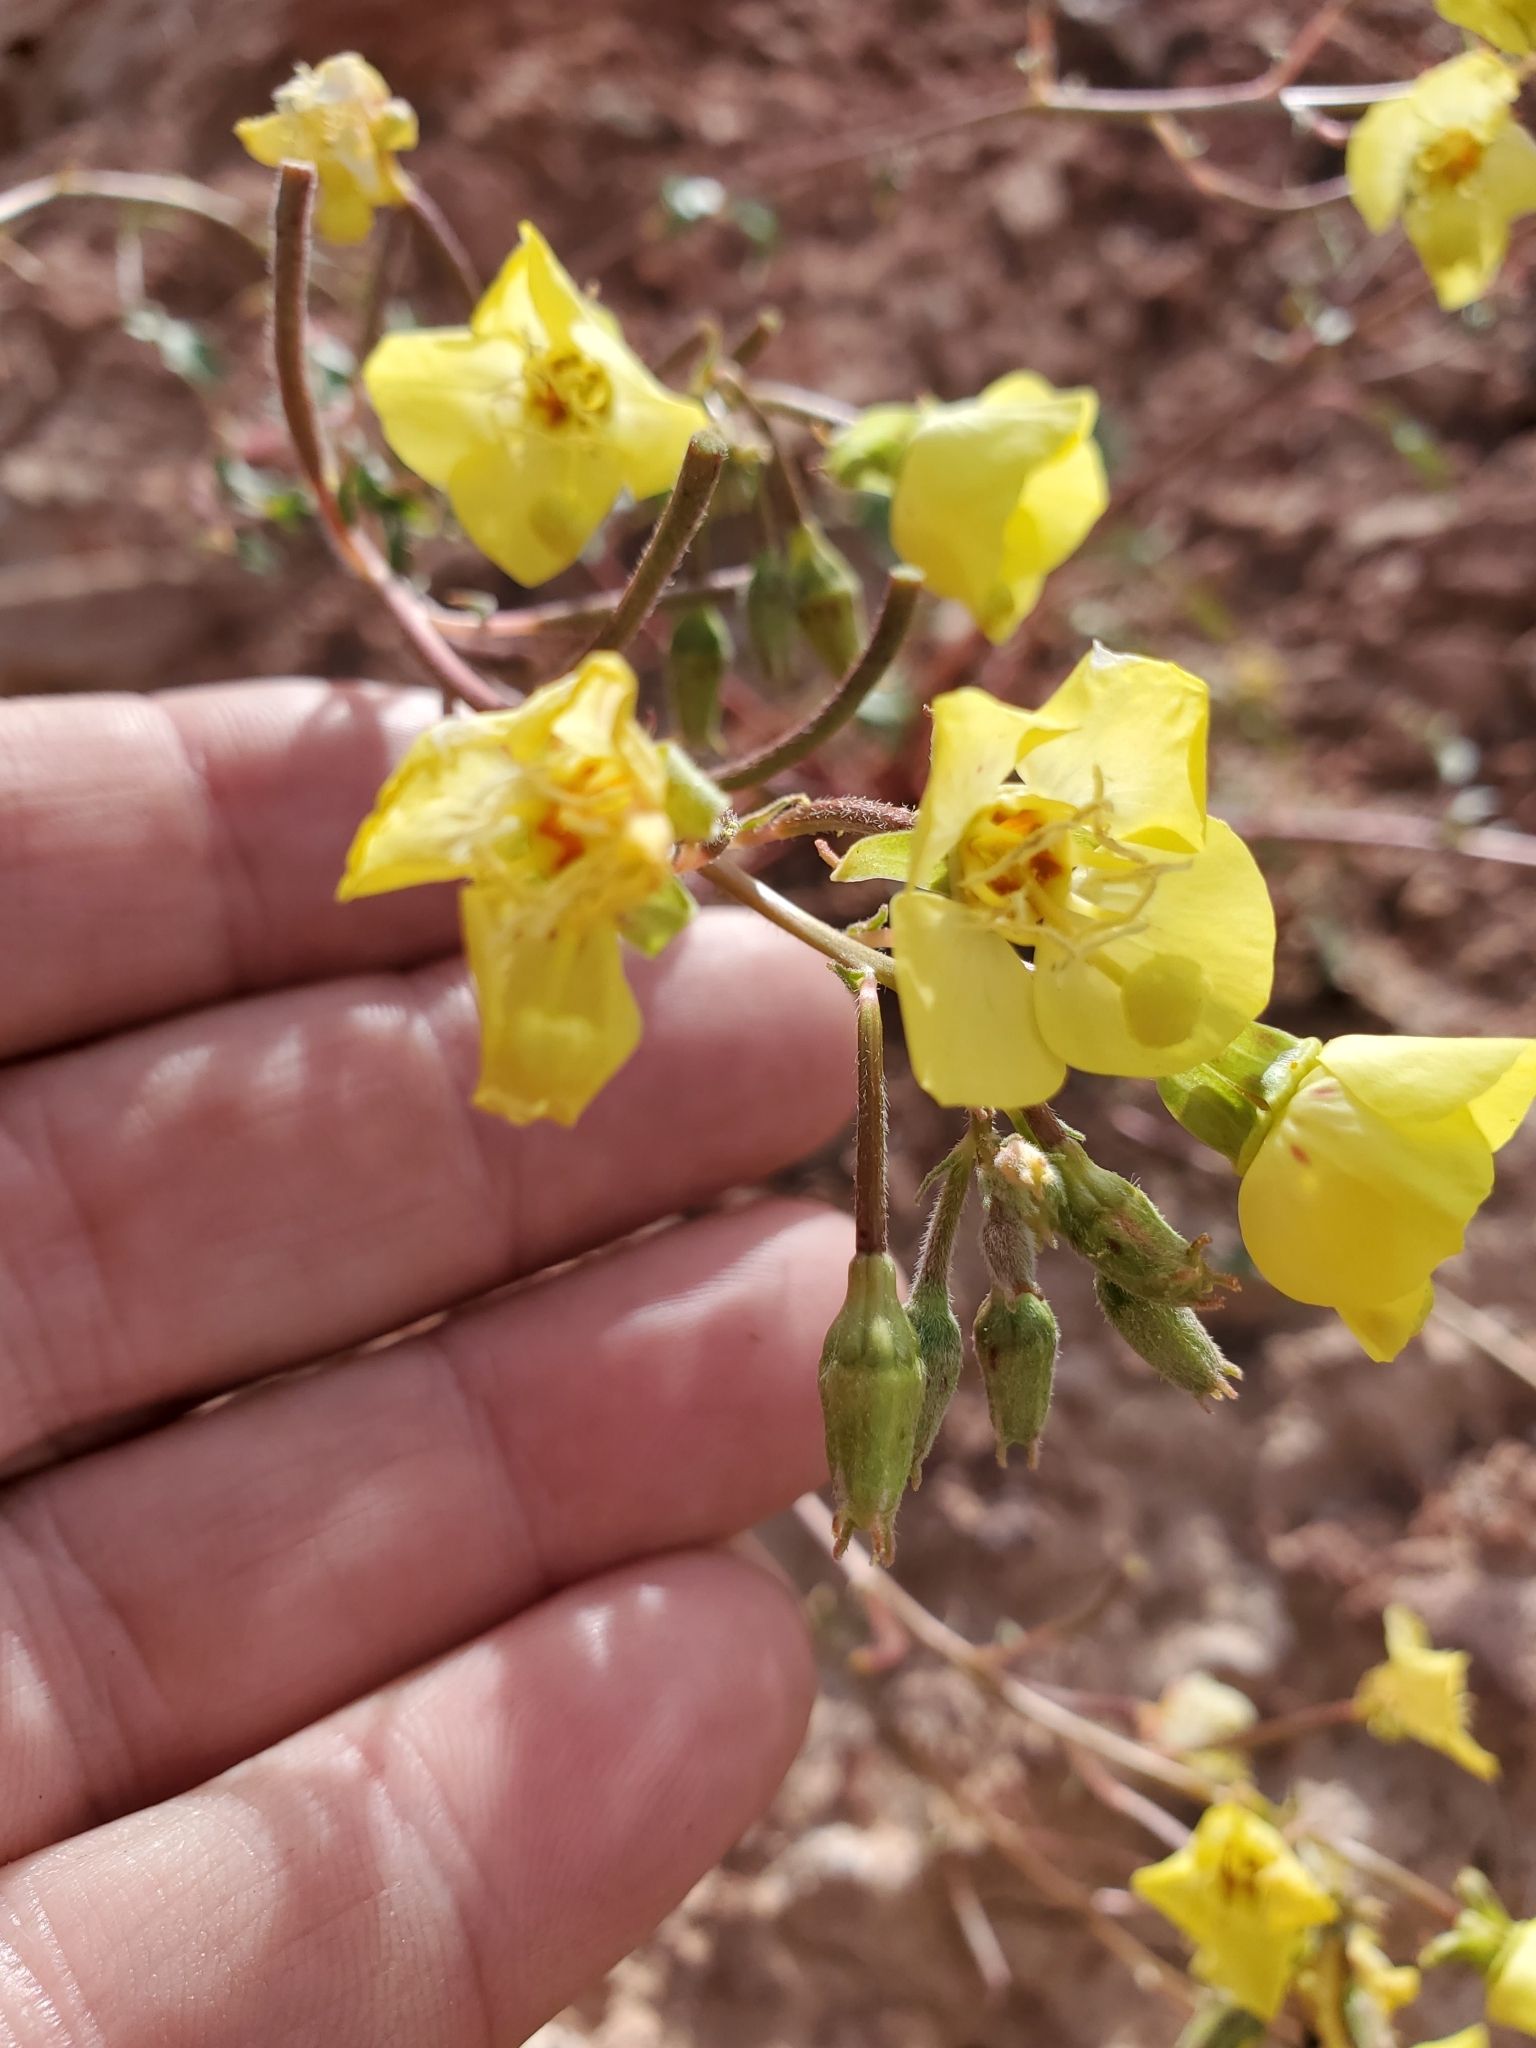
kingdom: Plantae
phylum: Tracheophyta
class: Magnoliopsida
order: Myrtales
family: Onagraceae
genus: Chylismia
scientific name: Chylismia brevipes
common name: Yellow cups
